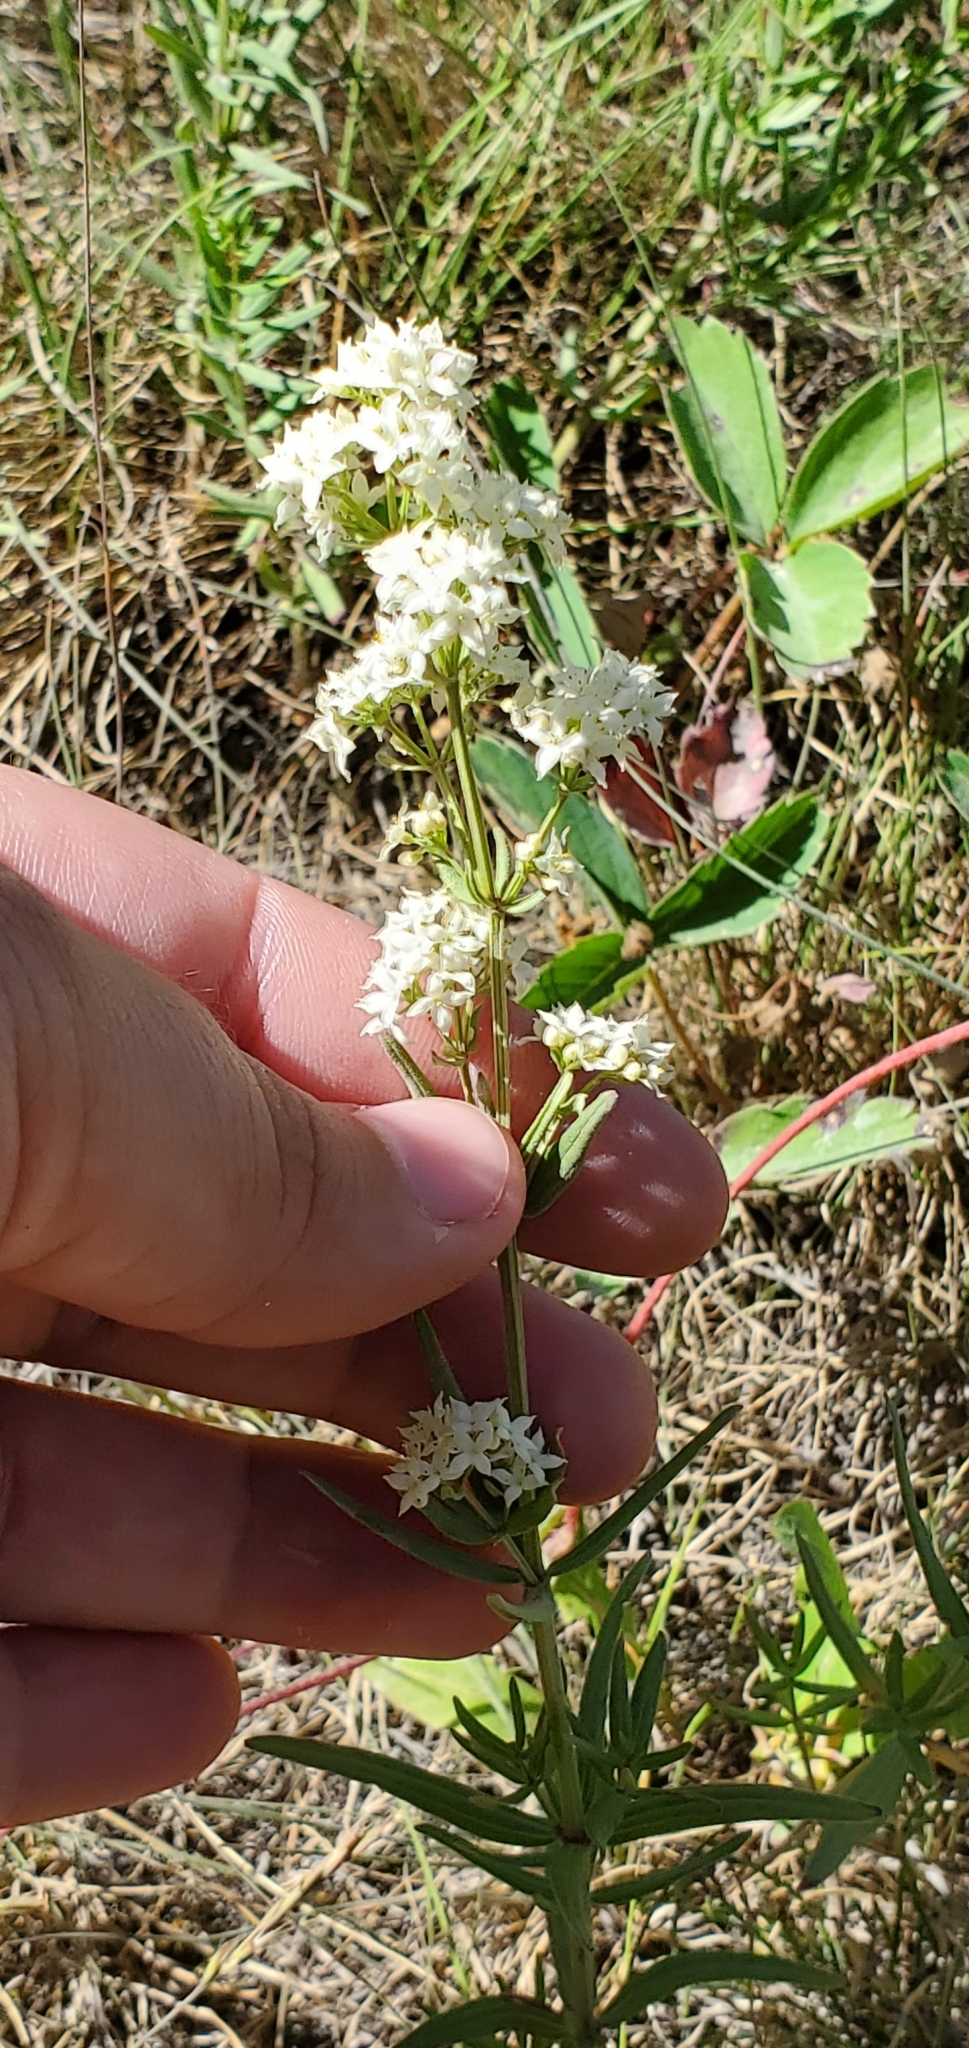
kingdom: Plantae
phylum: Tracheophyta
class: Magnoliopsida
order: Asterales
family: Asteraceae
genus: Achillea
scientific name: Achillea millefolium
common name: Yarrow
